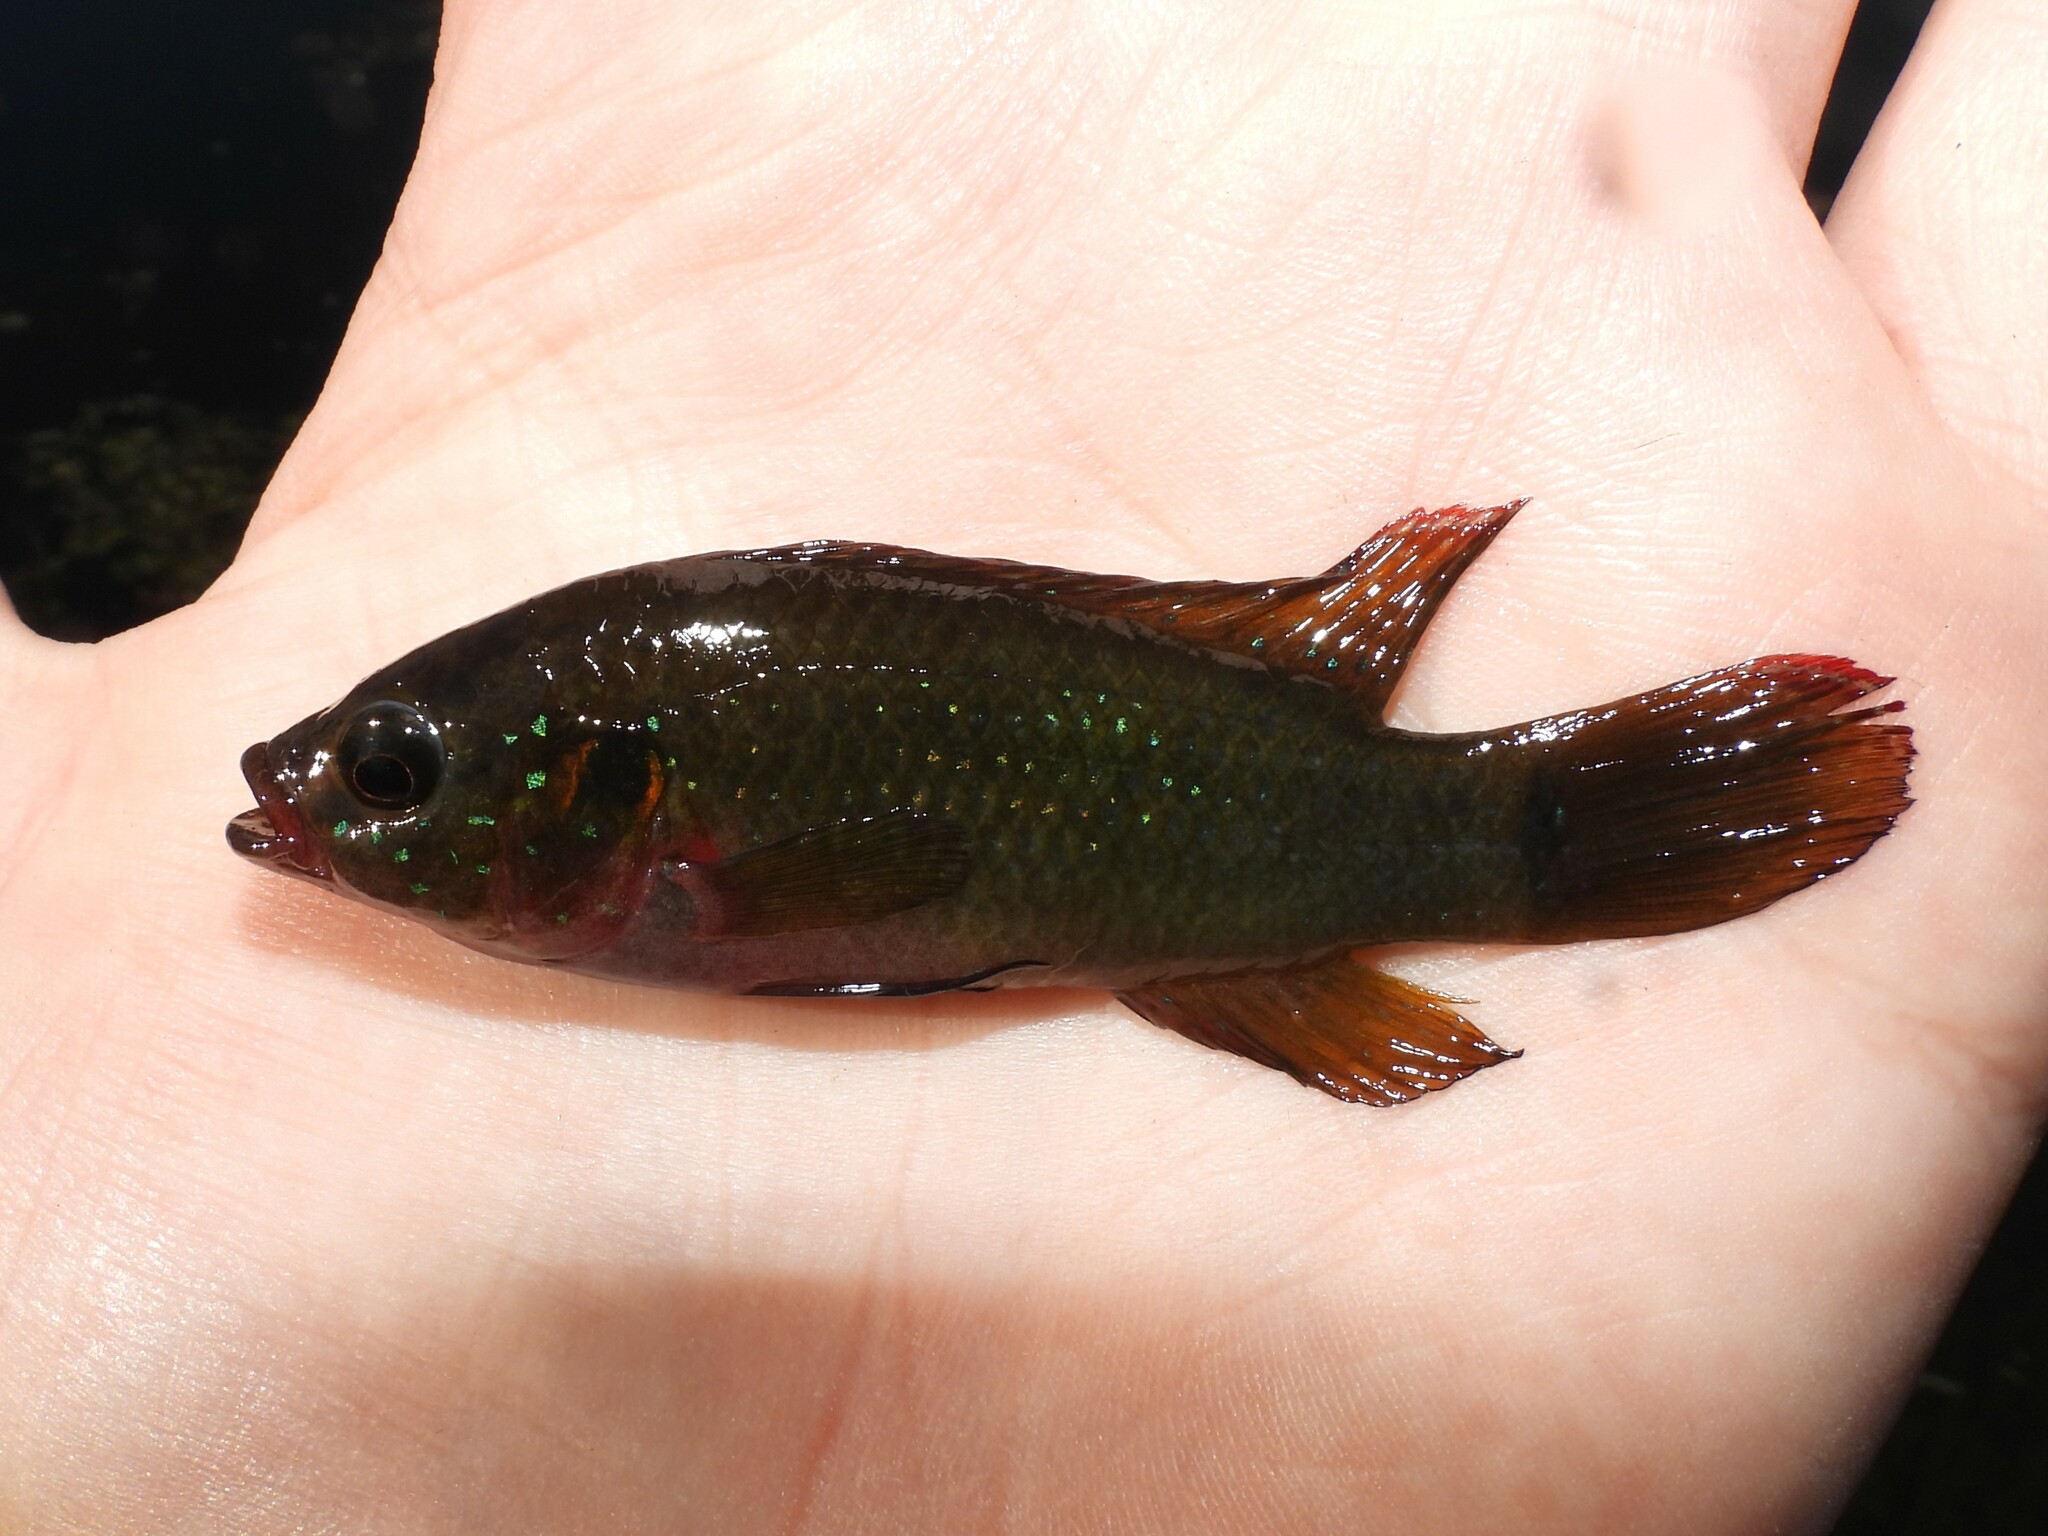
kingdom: Animalia
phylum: Chordata
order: Perciformes
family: Cichlidae
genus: Rubricatochromis
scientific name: Rubricatochromis
